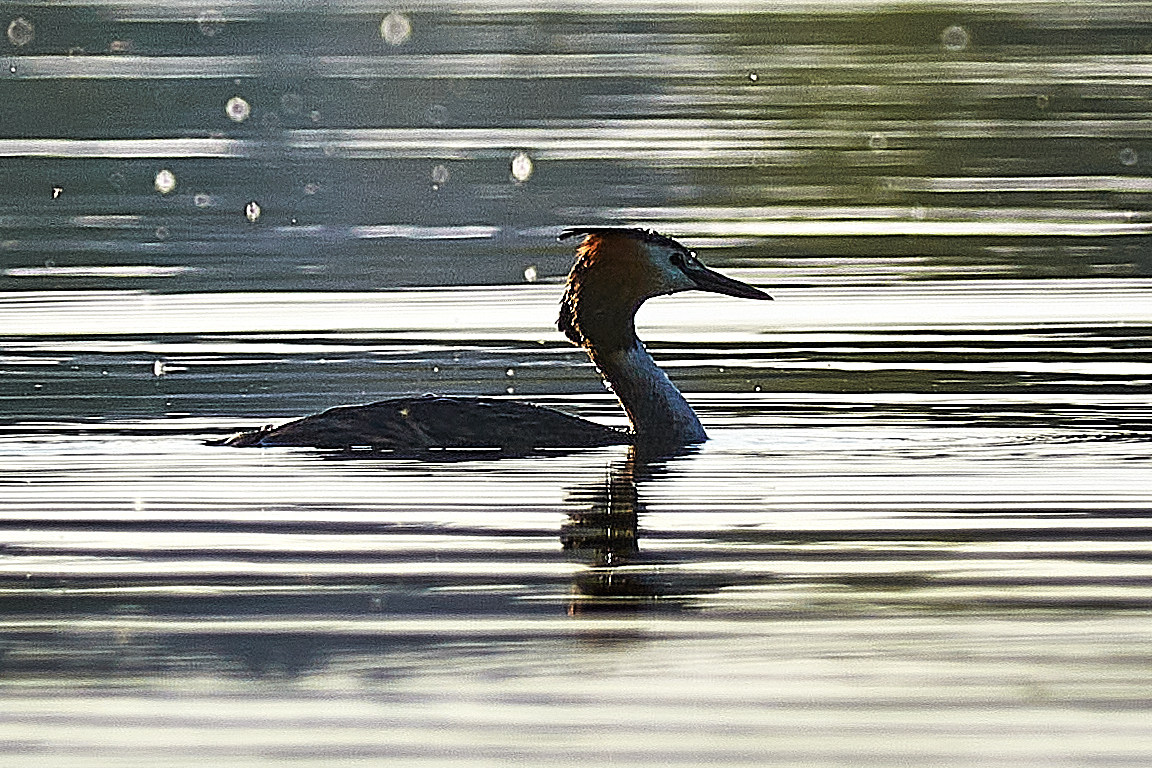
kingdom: Animalia
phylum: Chordata
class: Aves
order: Podicipediformes
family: Podicipedidae
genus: Podiceps
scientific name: Podiceps cristatus
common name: Great crested grebe
